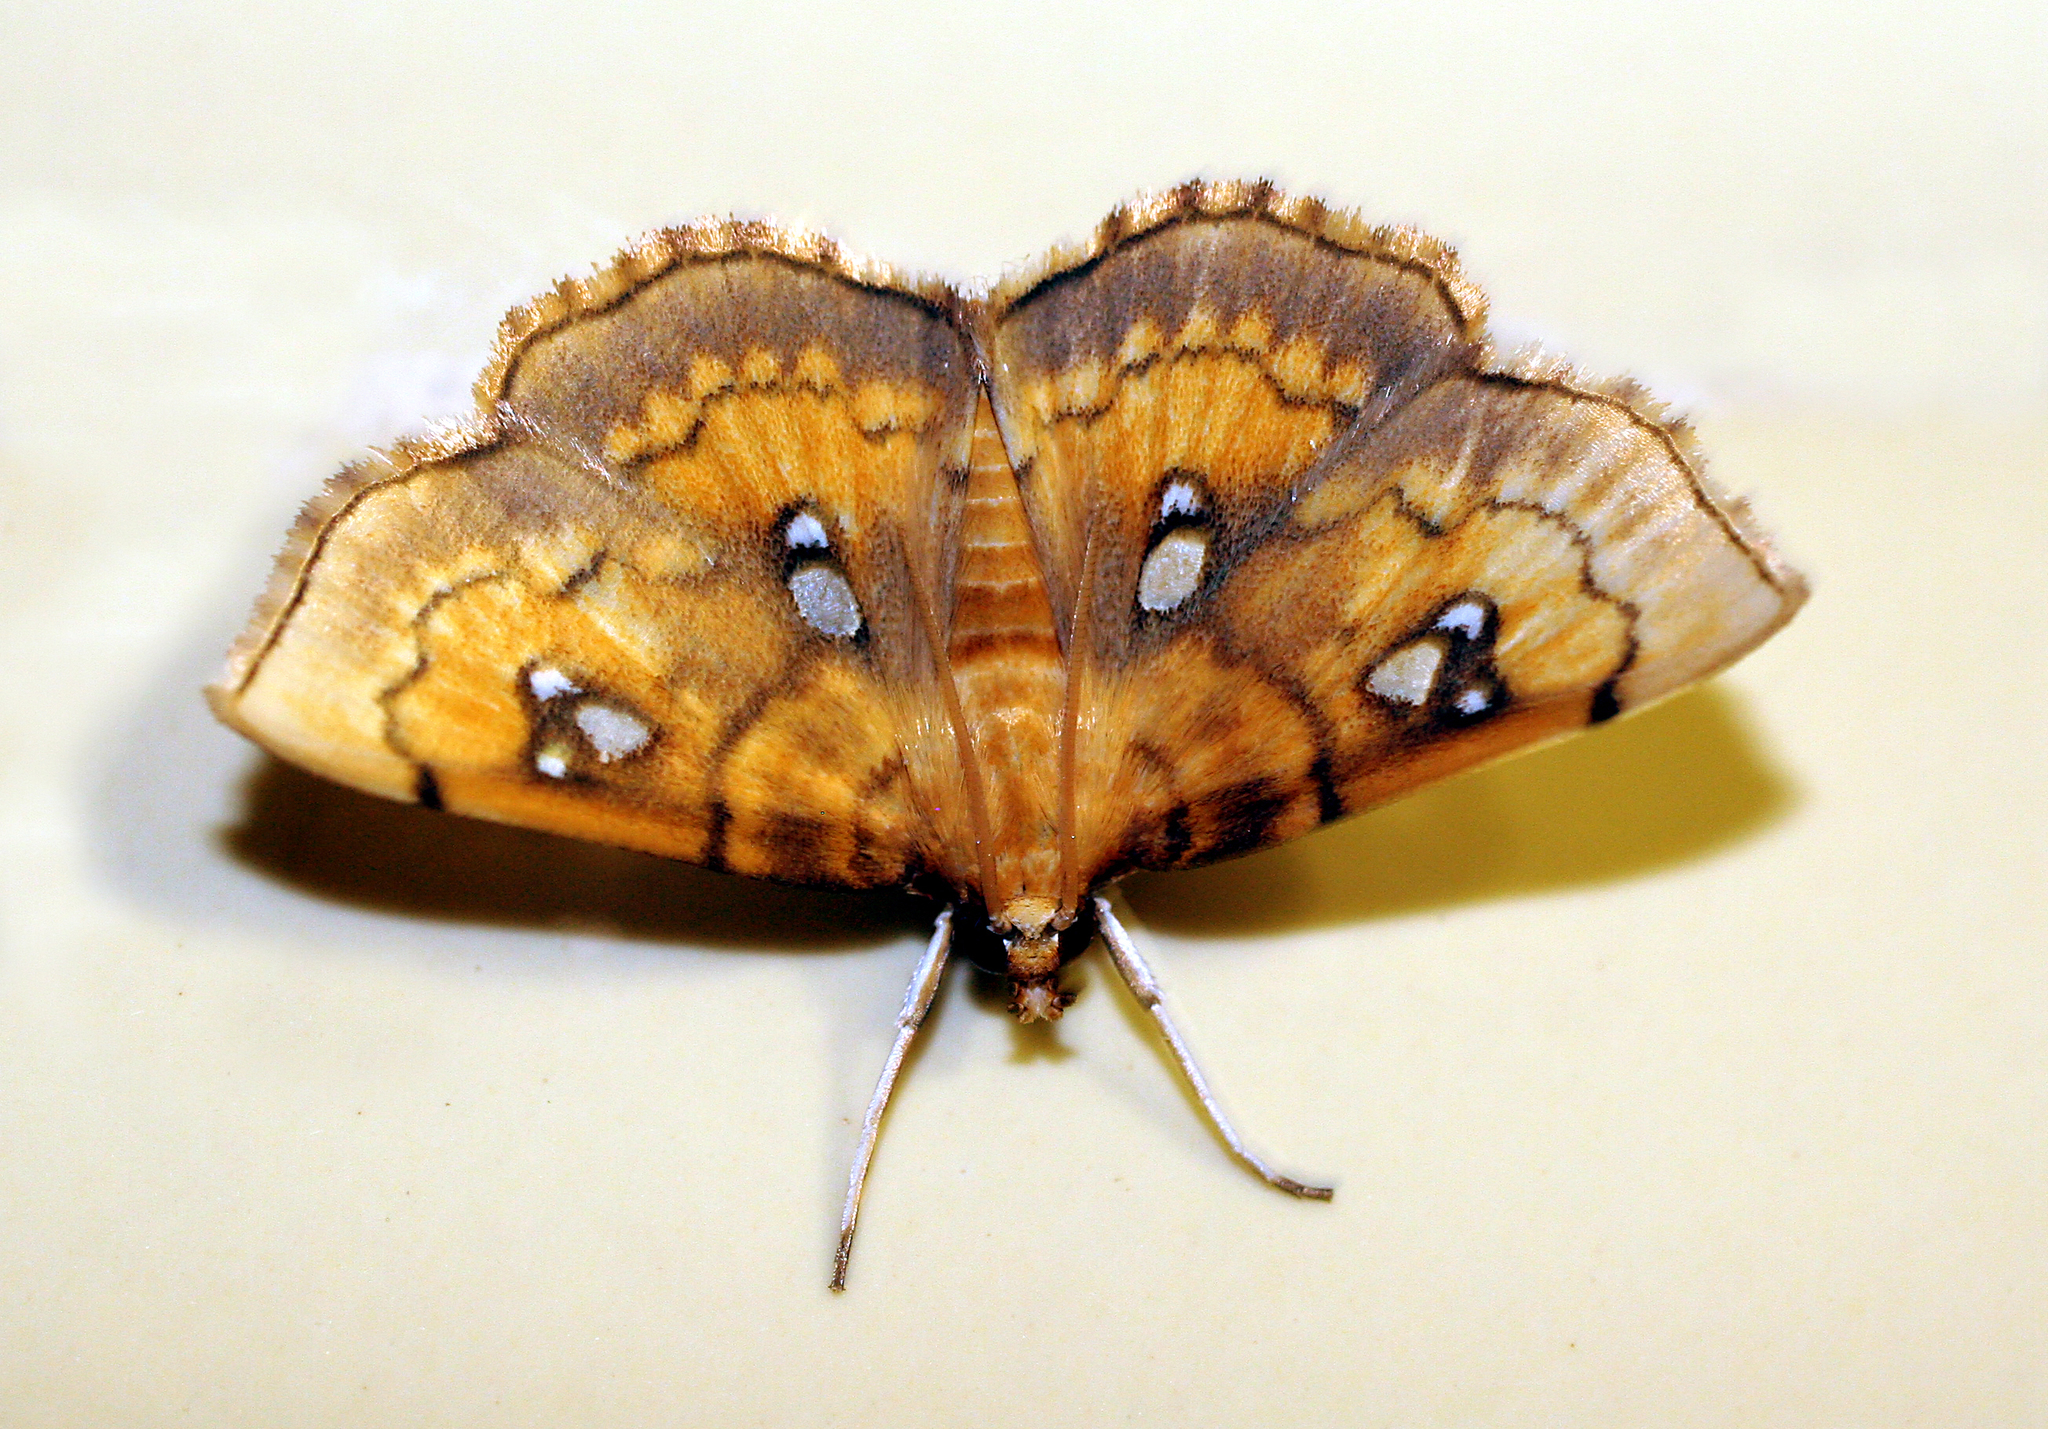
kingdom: Animalia
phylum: Arthropoda
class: Insecta
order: Lepidoptera
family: Crambidae
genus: Cacographis
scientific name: Cacographis osteolalis
